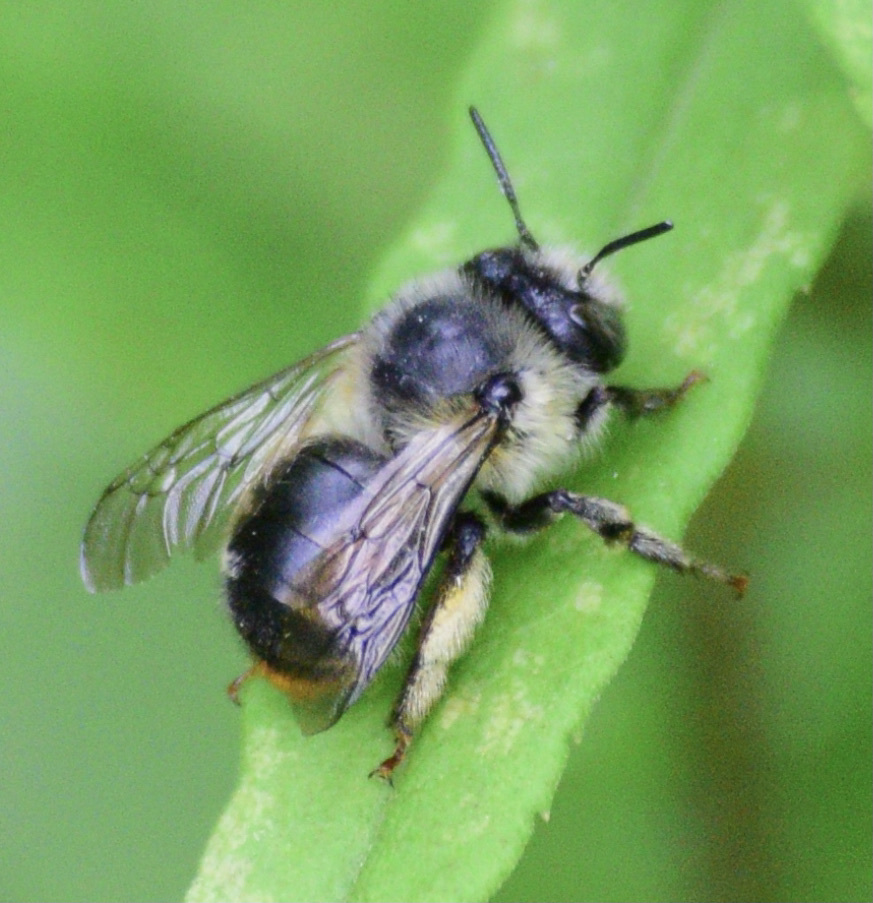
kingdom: Animalia
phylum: Arthropoda
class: Insecta
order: Hymenoptera
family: Apidae
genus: Anthophora
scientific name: Anthophora terminalis
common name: Orange-tipped wood-digger bee
